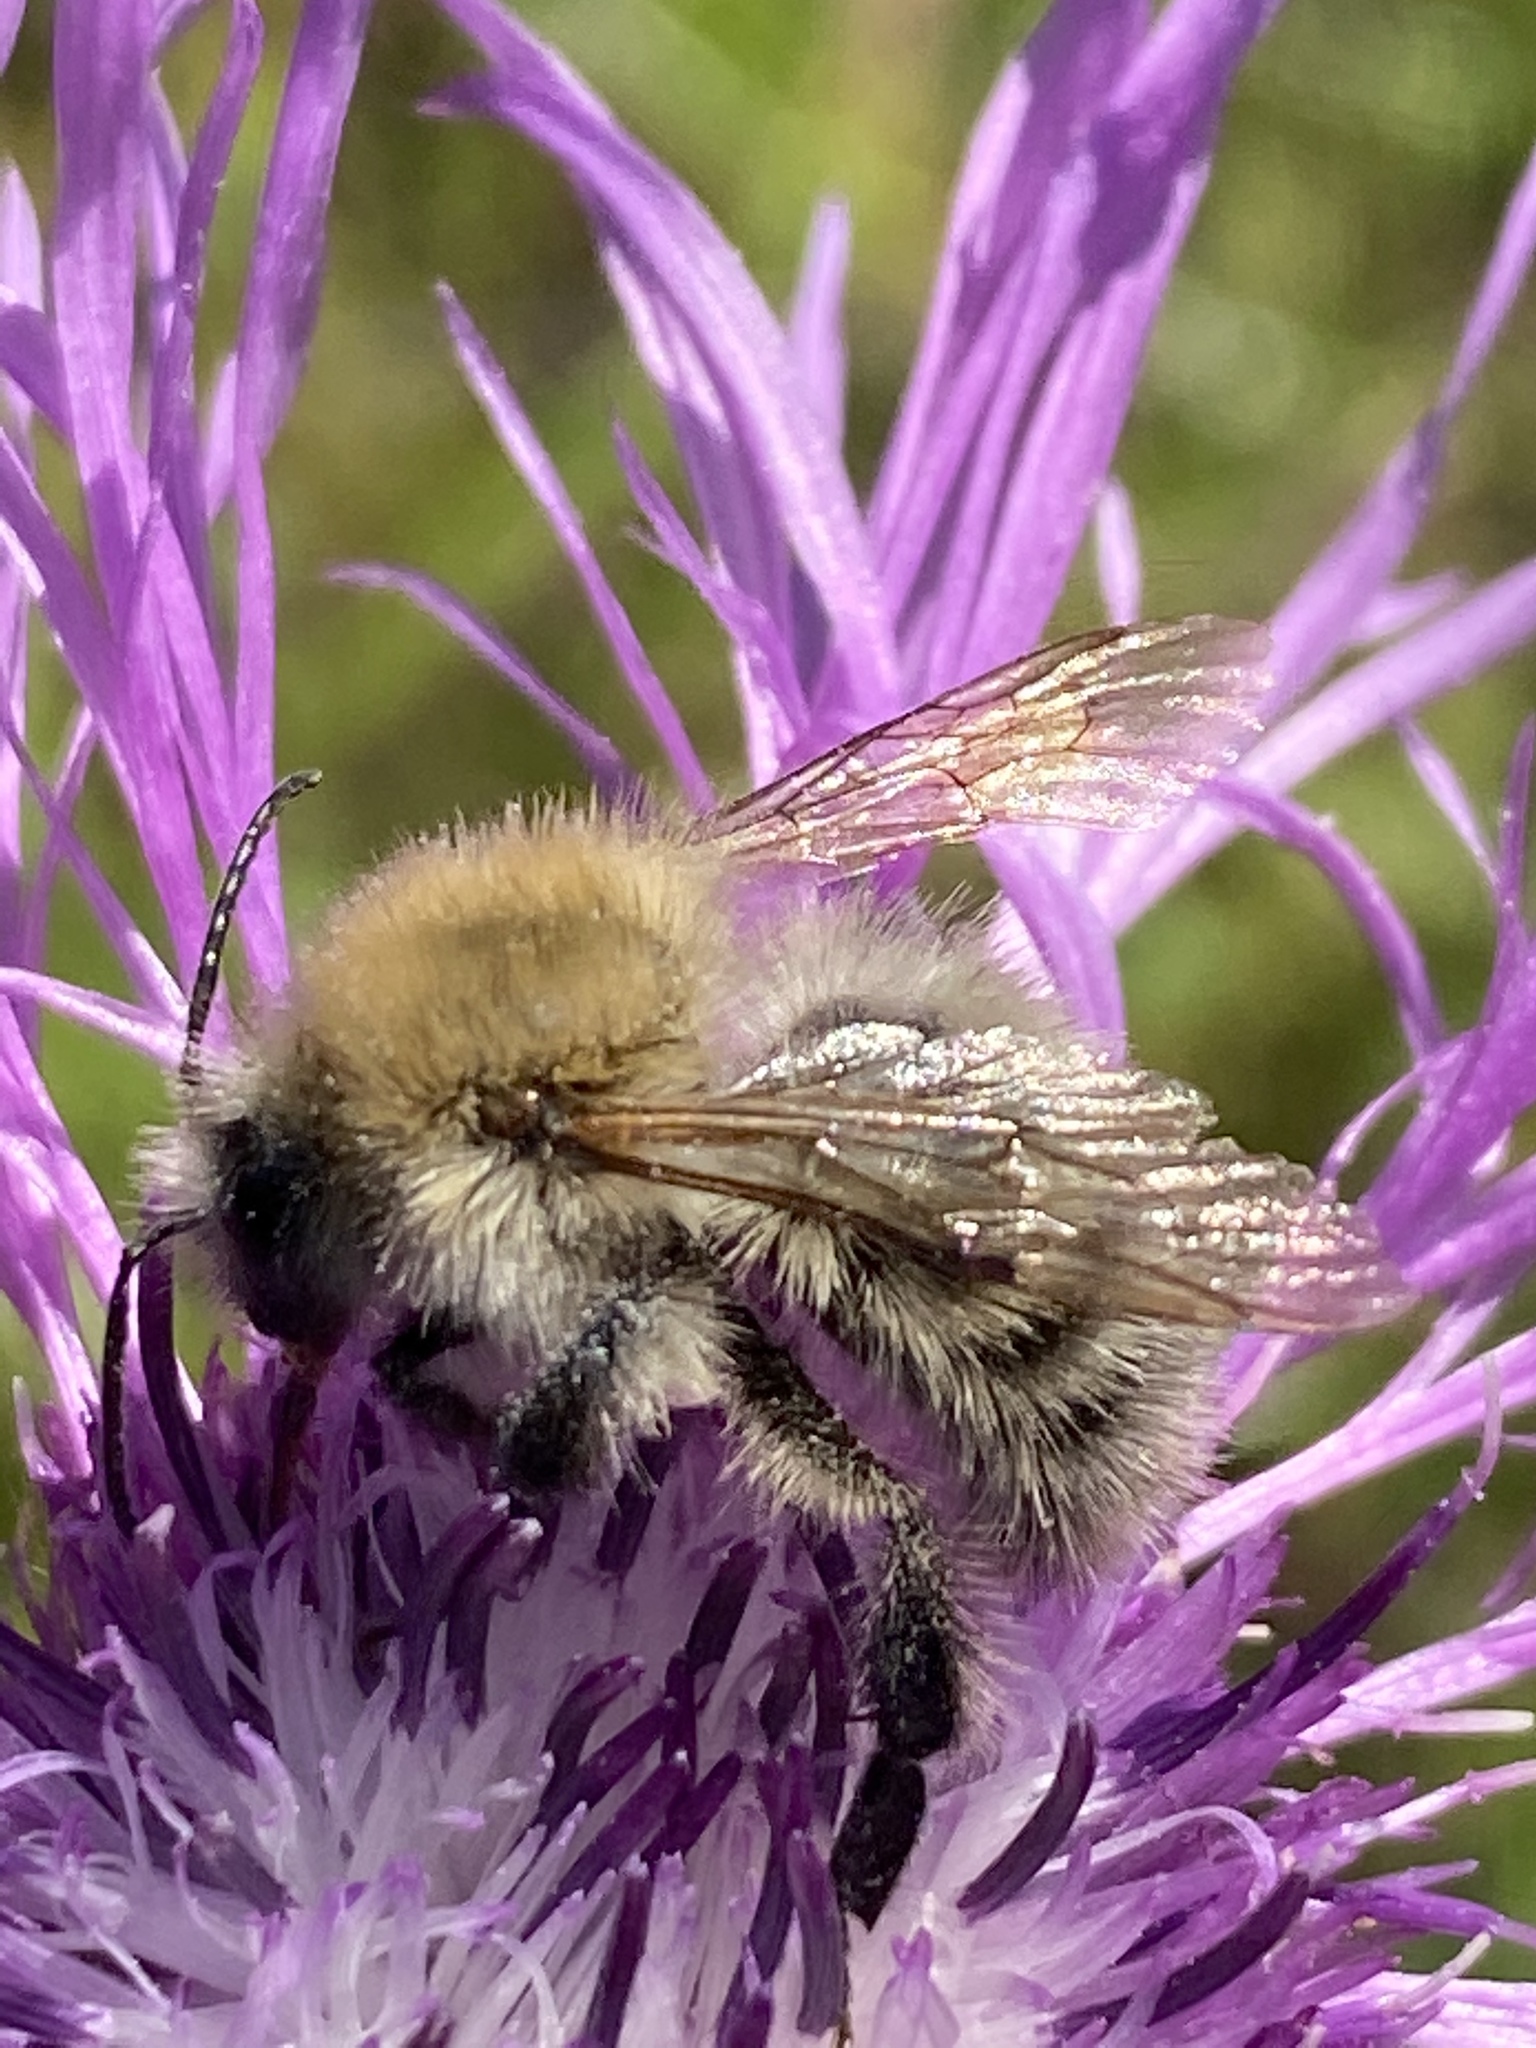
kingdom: Animalia
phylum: Arthropoda
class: Insecta
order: Hymenoptera
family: Apidae
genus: Bombus
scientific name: Bombus pascuorum
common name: Common carder bee
